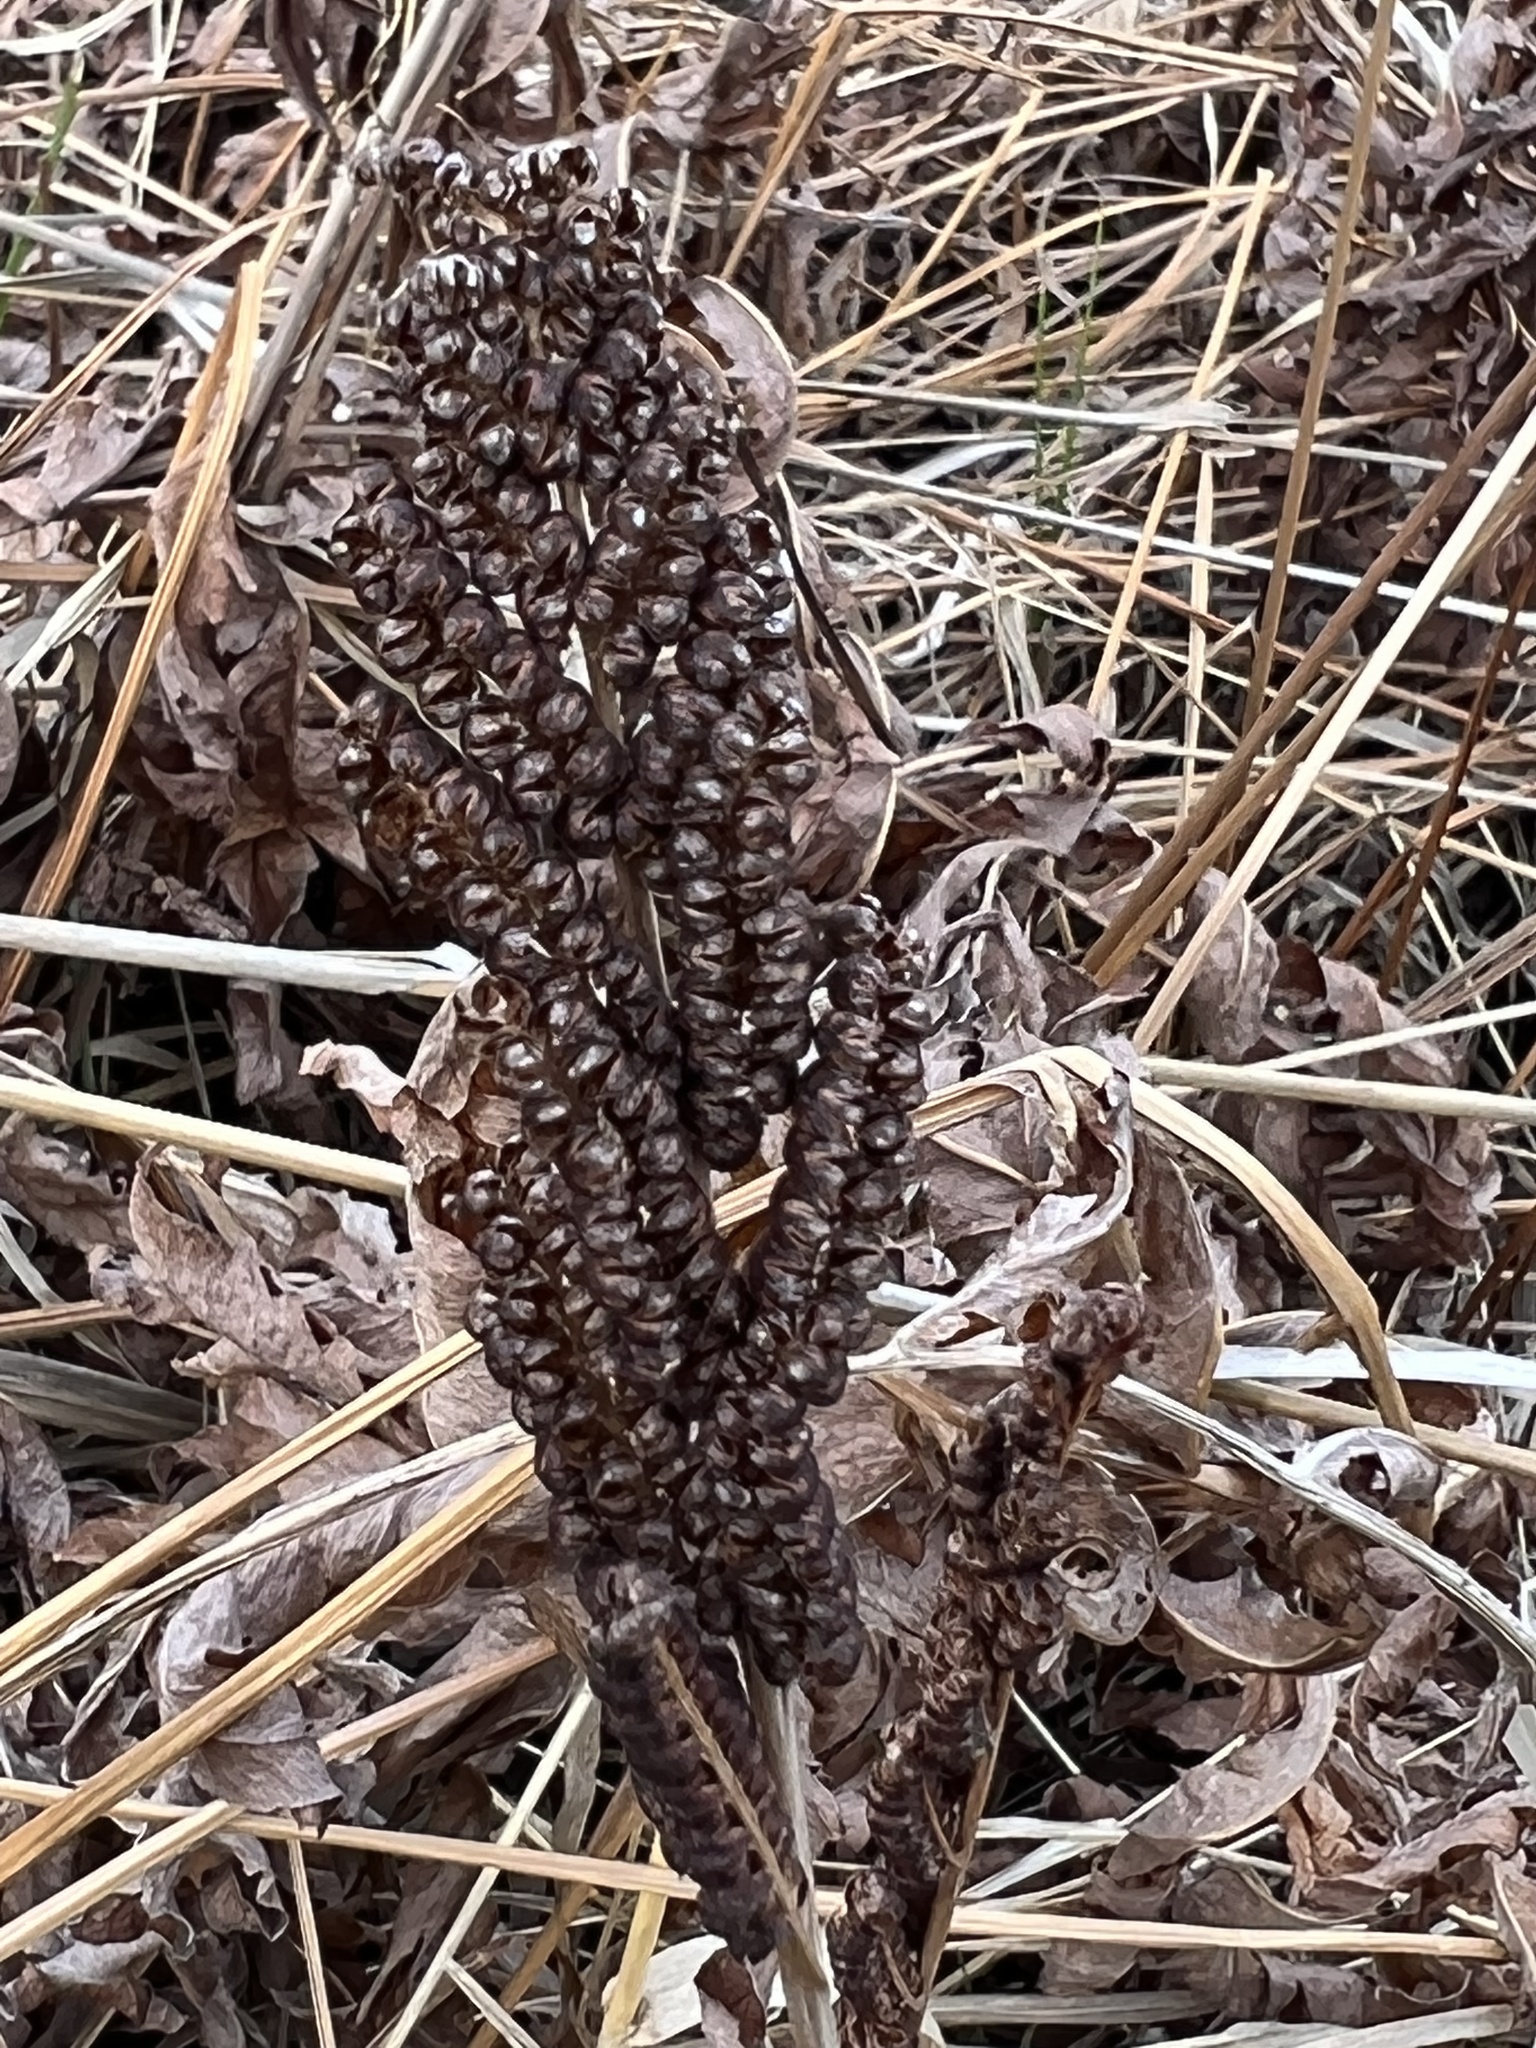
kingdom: Plantae
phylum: Tracheophyta
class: Polypodiopsida
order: Polypodiales
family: Onocleaceae
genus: Onoclea
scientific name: Onoclea sensibilis
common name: Sensitive fern
